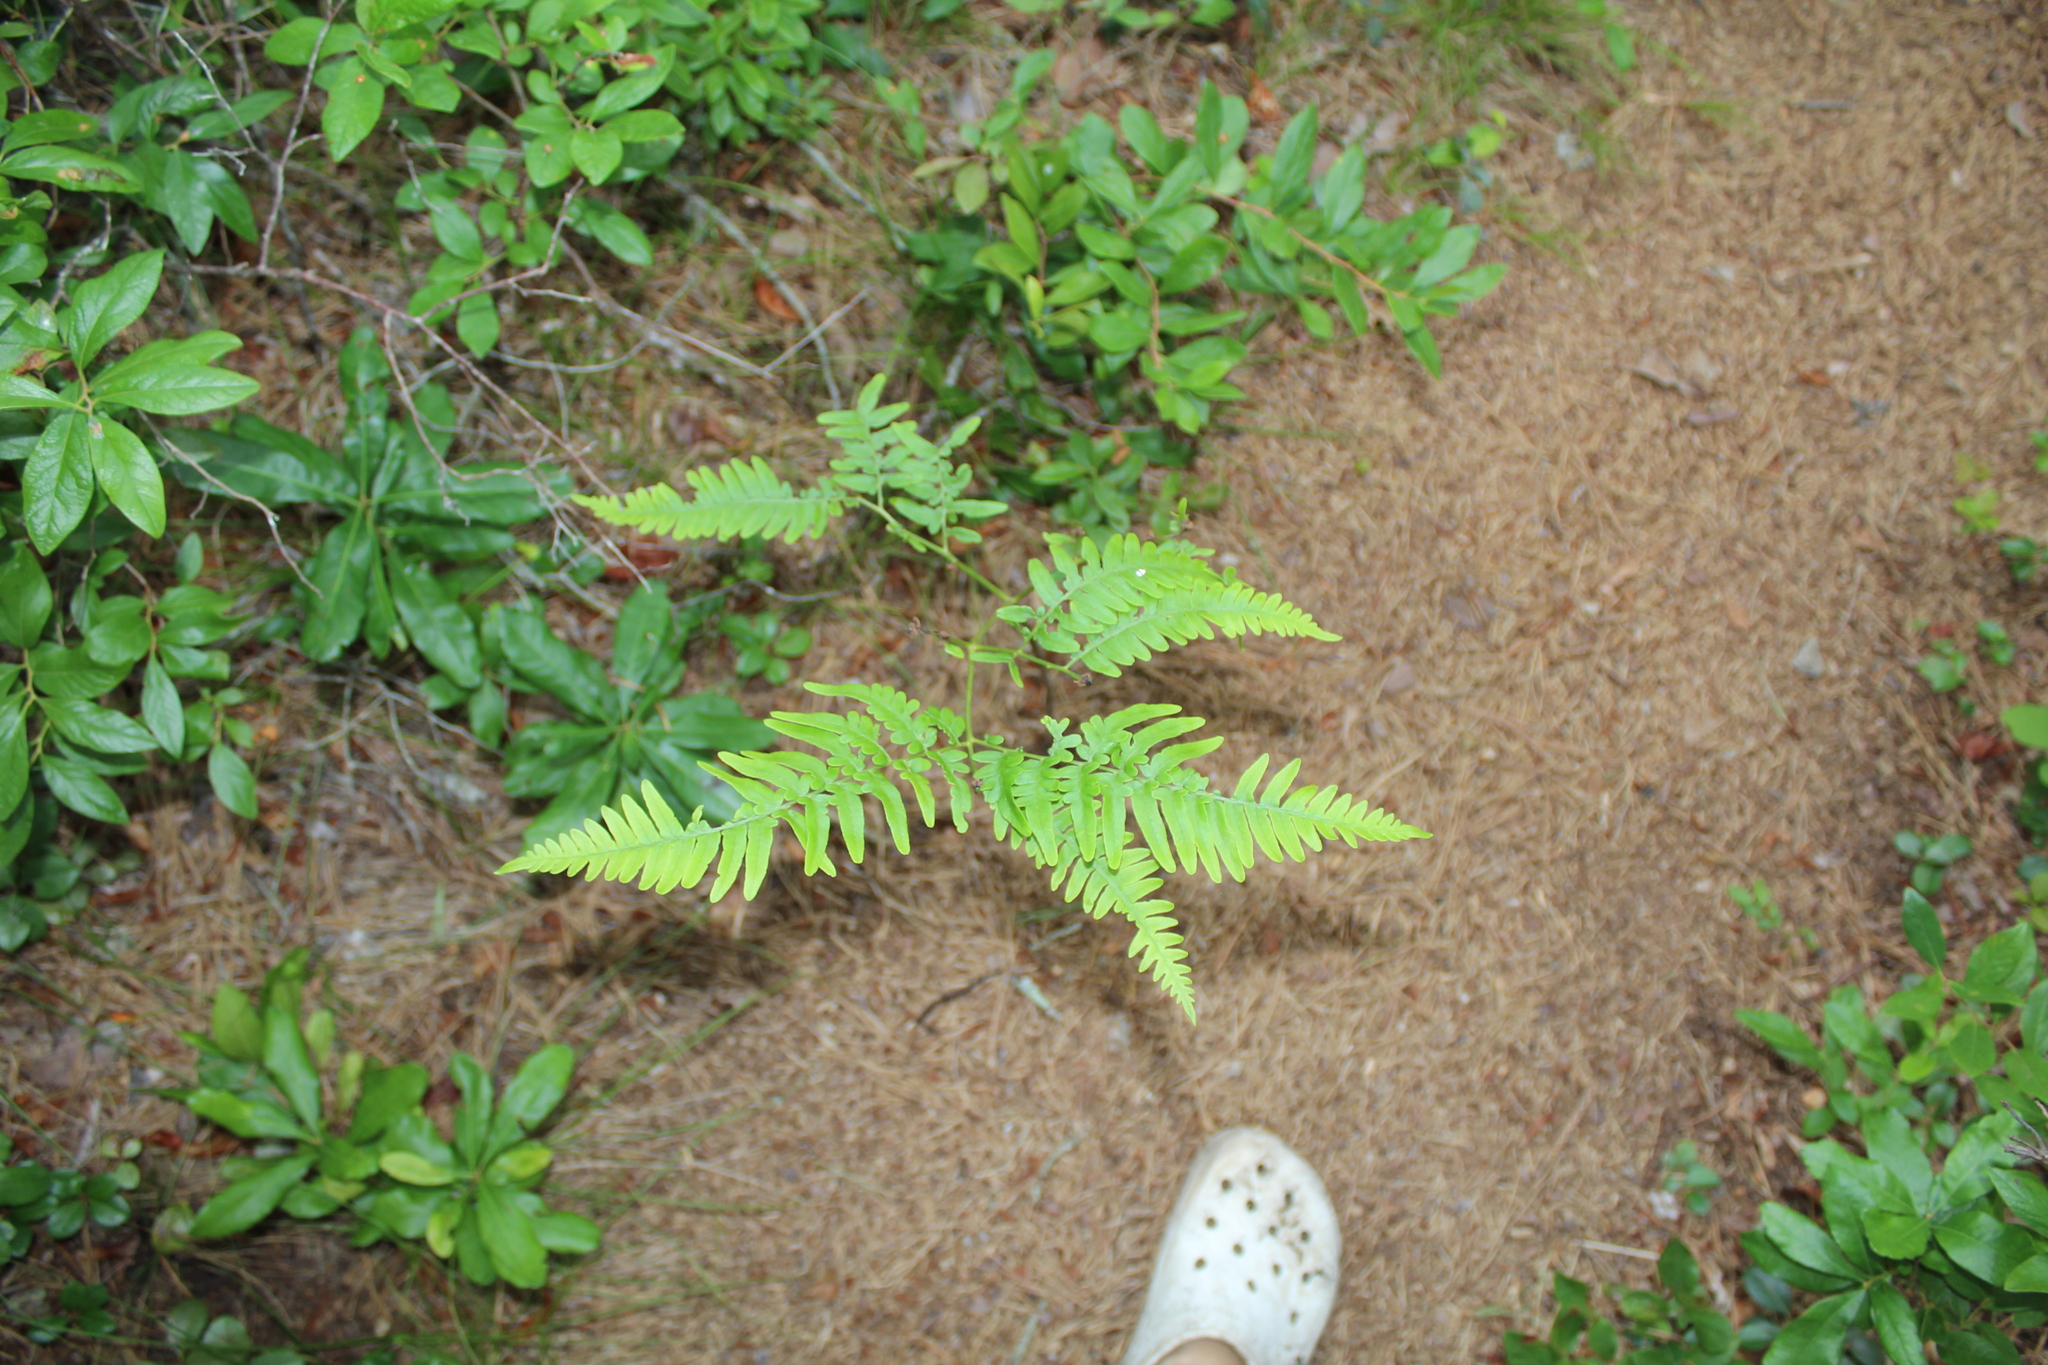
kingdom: Plantae
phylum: Tracheophyta
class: Polypodiopsida
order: Polypodiales
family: Dennstaedtiaceae
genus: Pteridium
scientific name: Pteridium aquilinum
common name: Bracken
